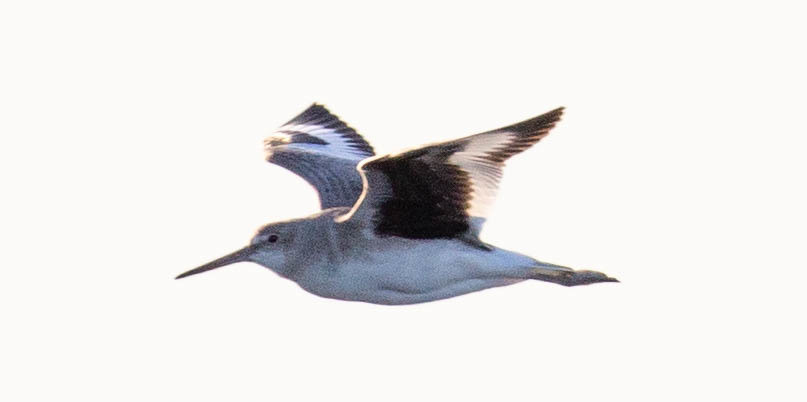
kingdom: Animalia
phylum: Chordata
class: Aves
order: Charadriiformes
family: Scolopacidae
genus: Tringa
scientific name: Tringa semipalmata
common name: Willet
